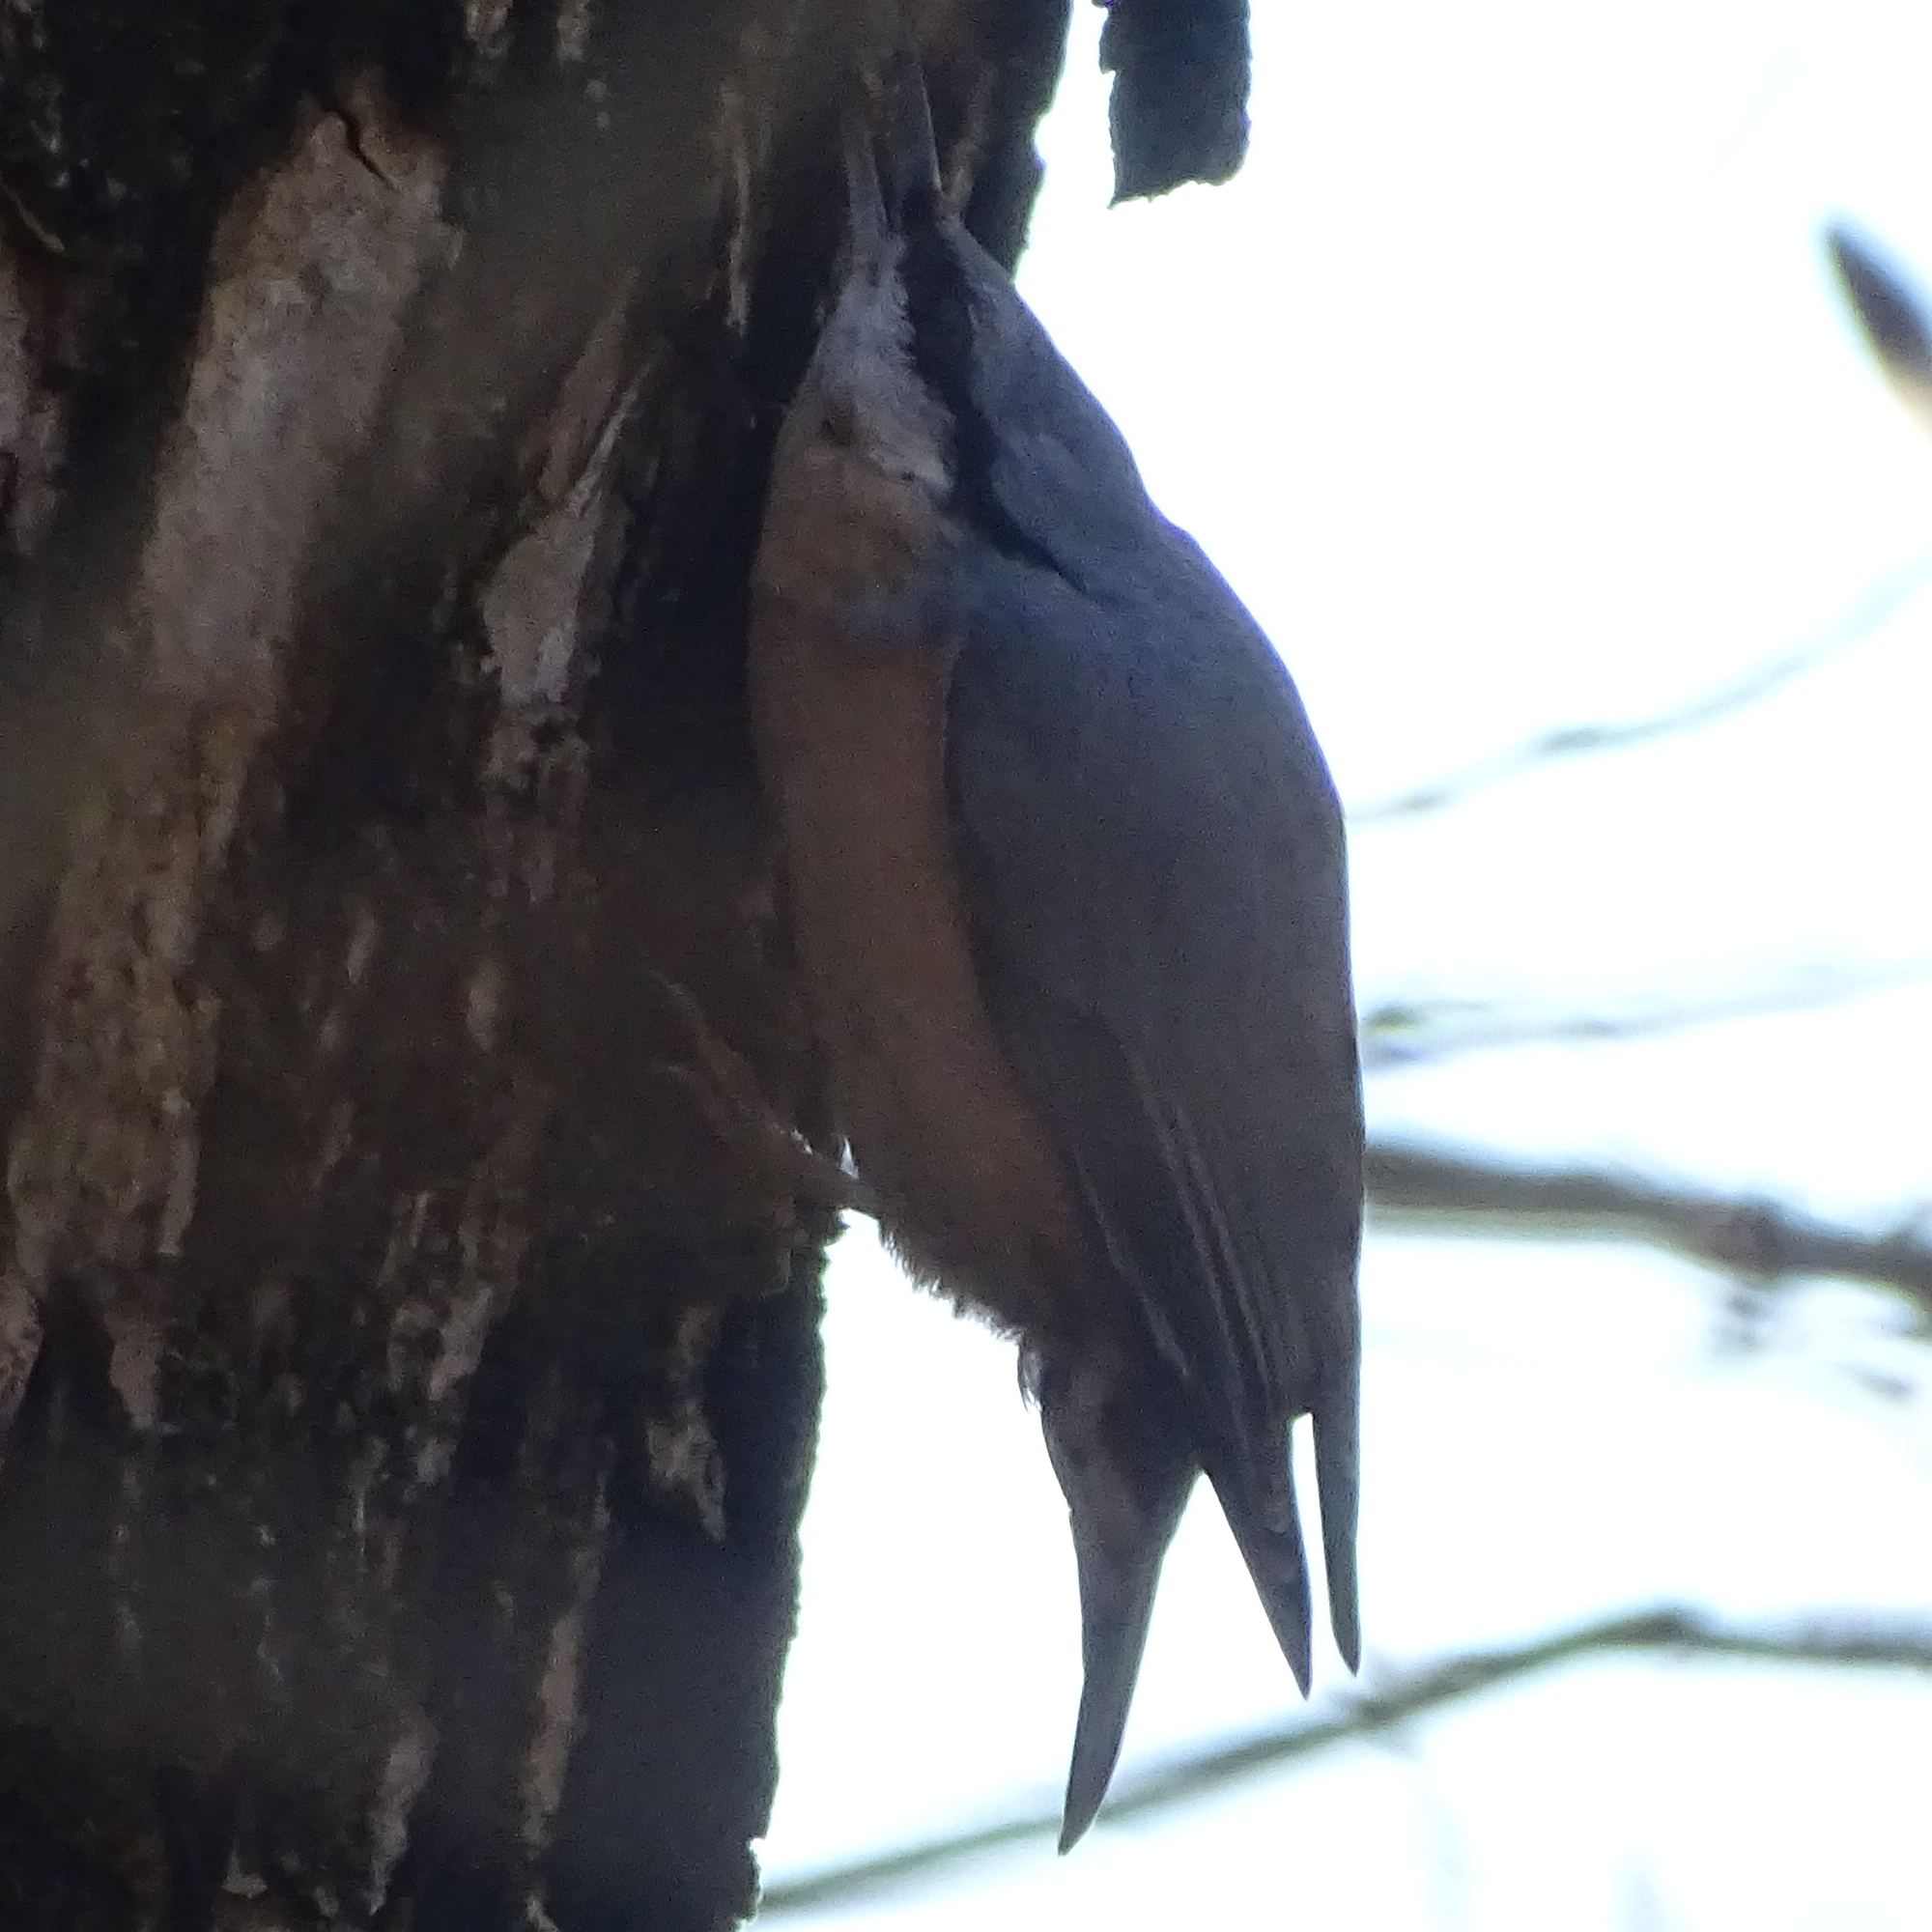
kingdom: Animalia
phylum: Chordata
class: Aves
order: Passeriformes
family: Sittidae
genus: Sitta
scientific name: Sitta europaea
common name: Eurasian nuthatch
